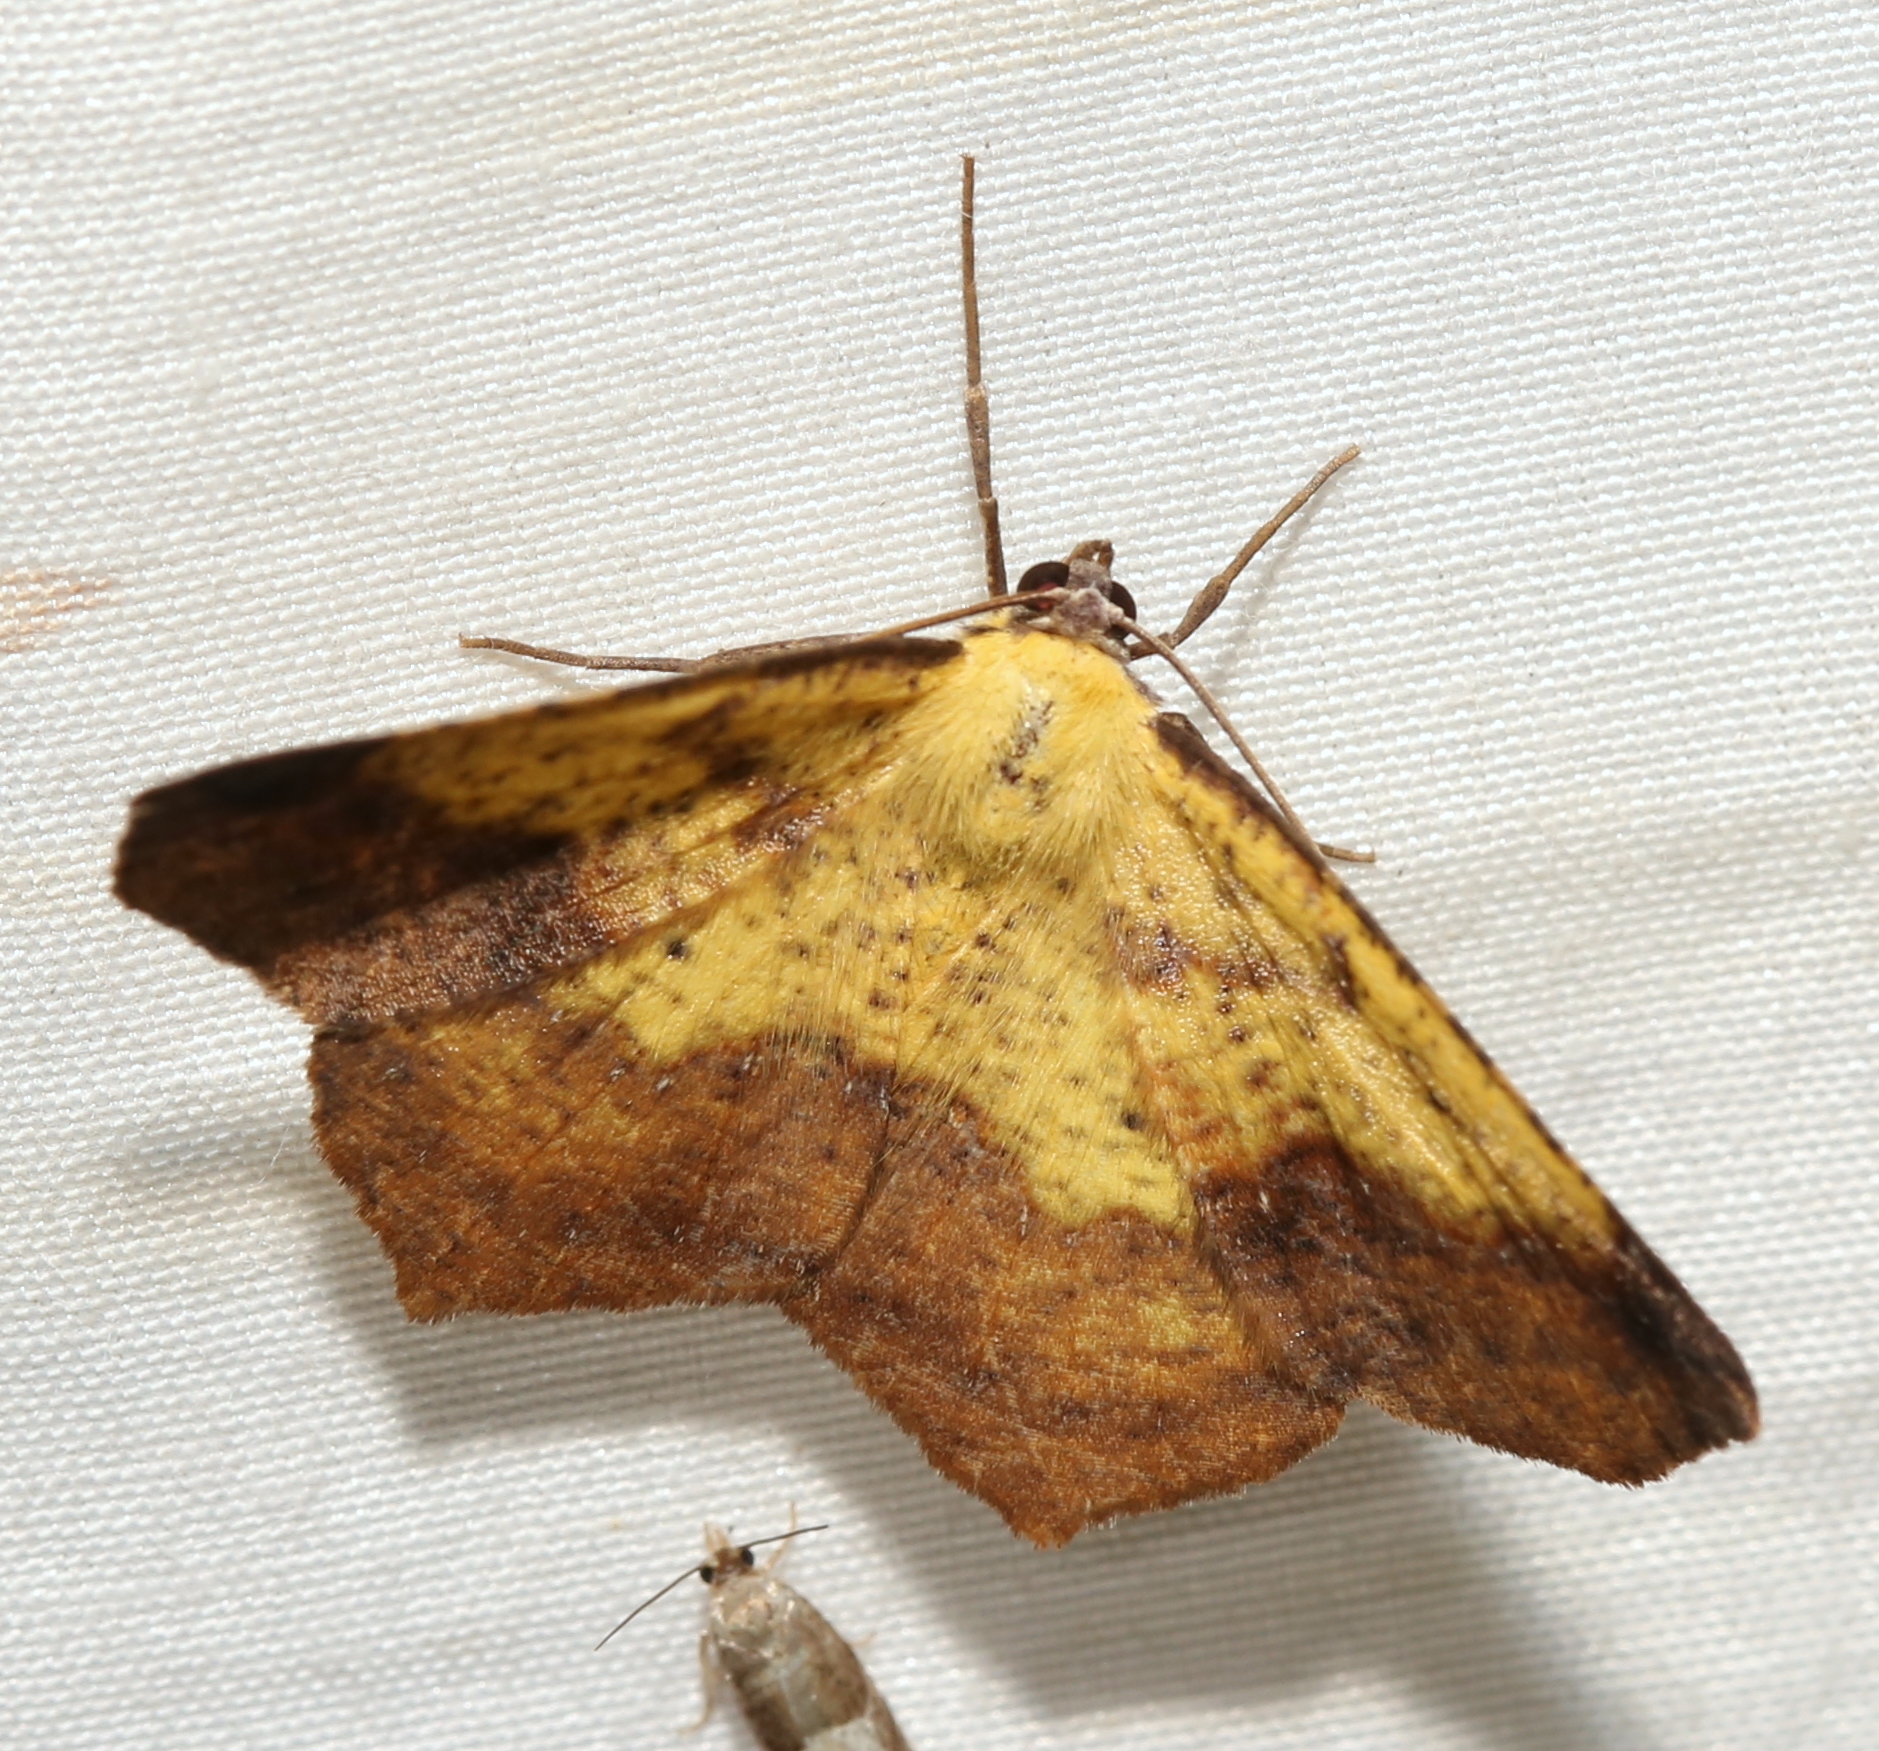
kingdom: Animalia
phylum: Arthropoda
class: Insecta
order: Lepidoptera
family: Geometridae
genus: Antepione
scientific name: Antepione thisoaria
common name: Variable antipione
